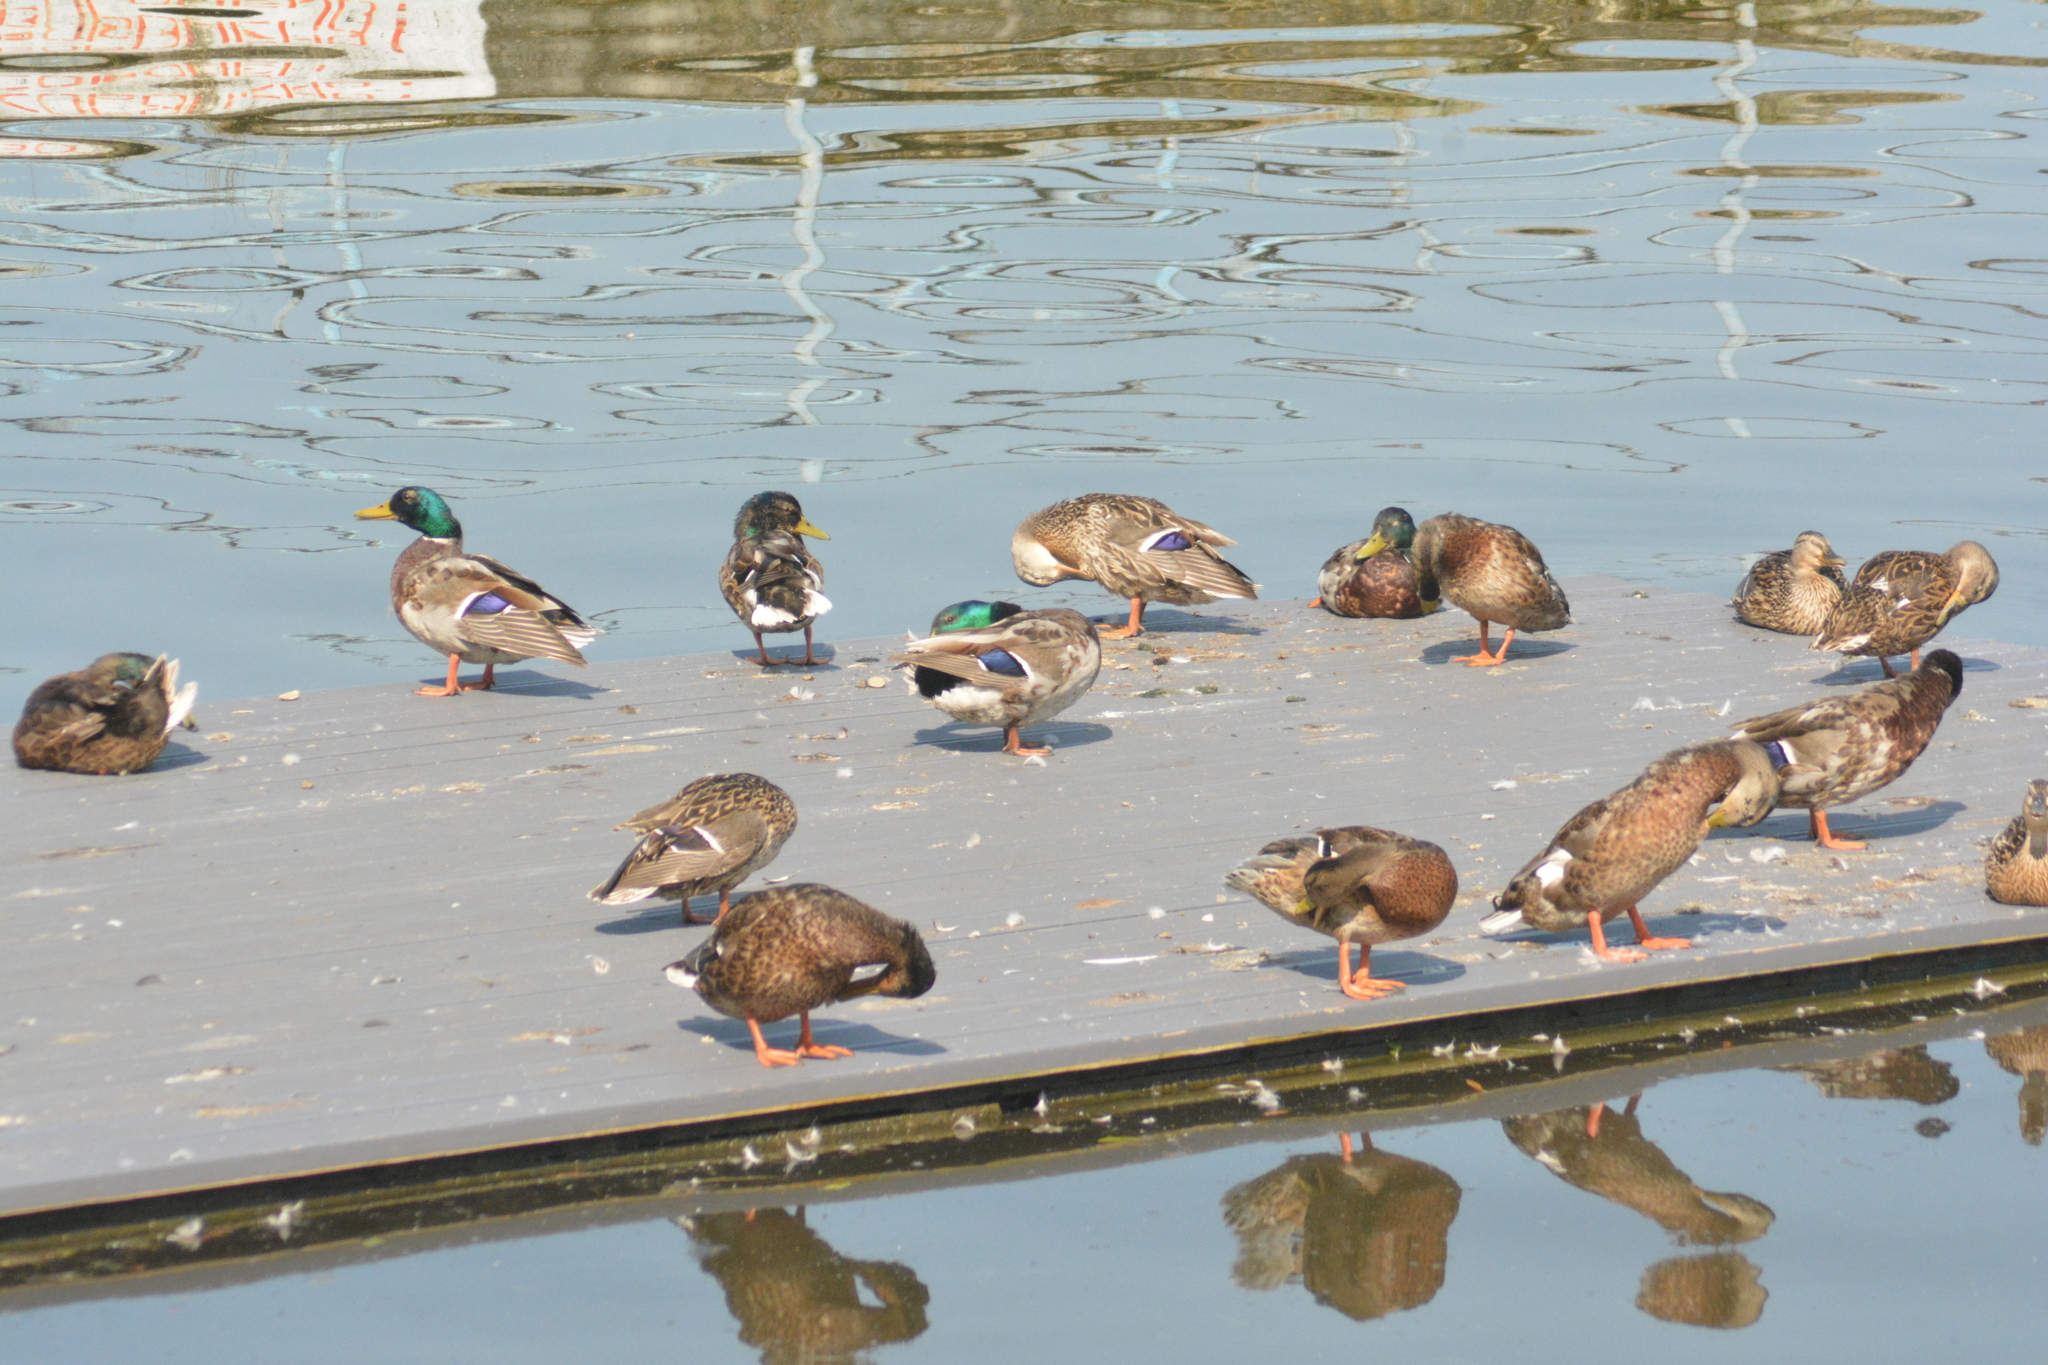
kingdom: Animalia
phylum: Chordata
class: Aves
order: Anseriformes
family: Anatidae
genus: Anas
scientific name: Anas platyrhynchos
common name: Mallard
